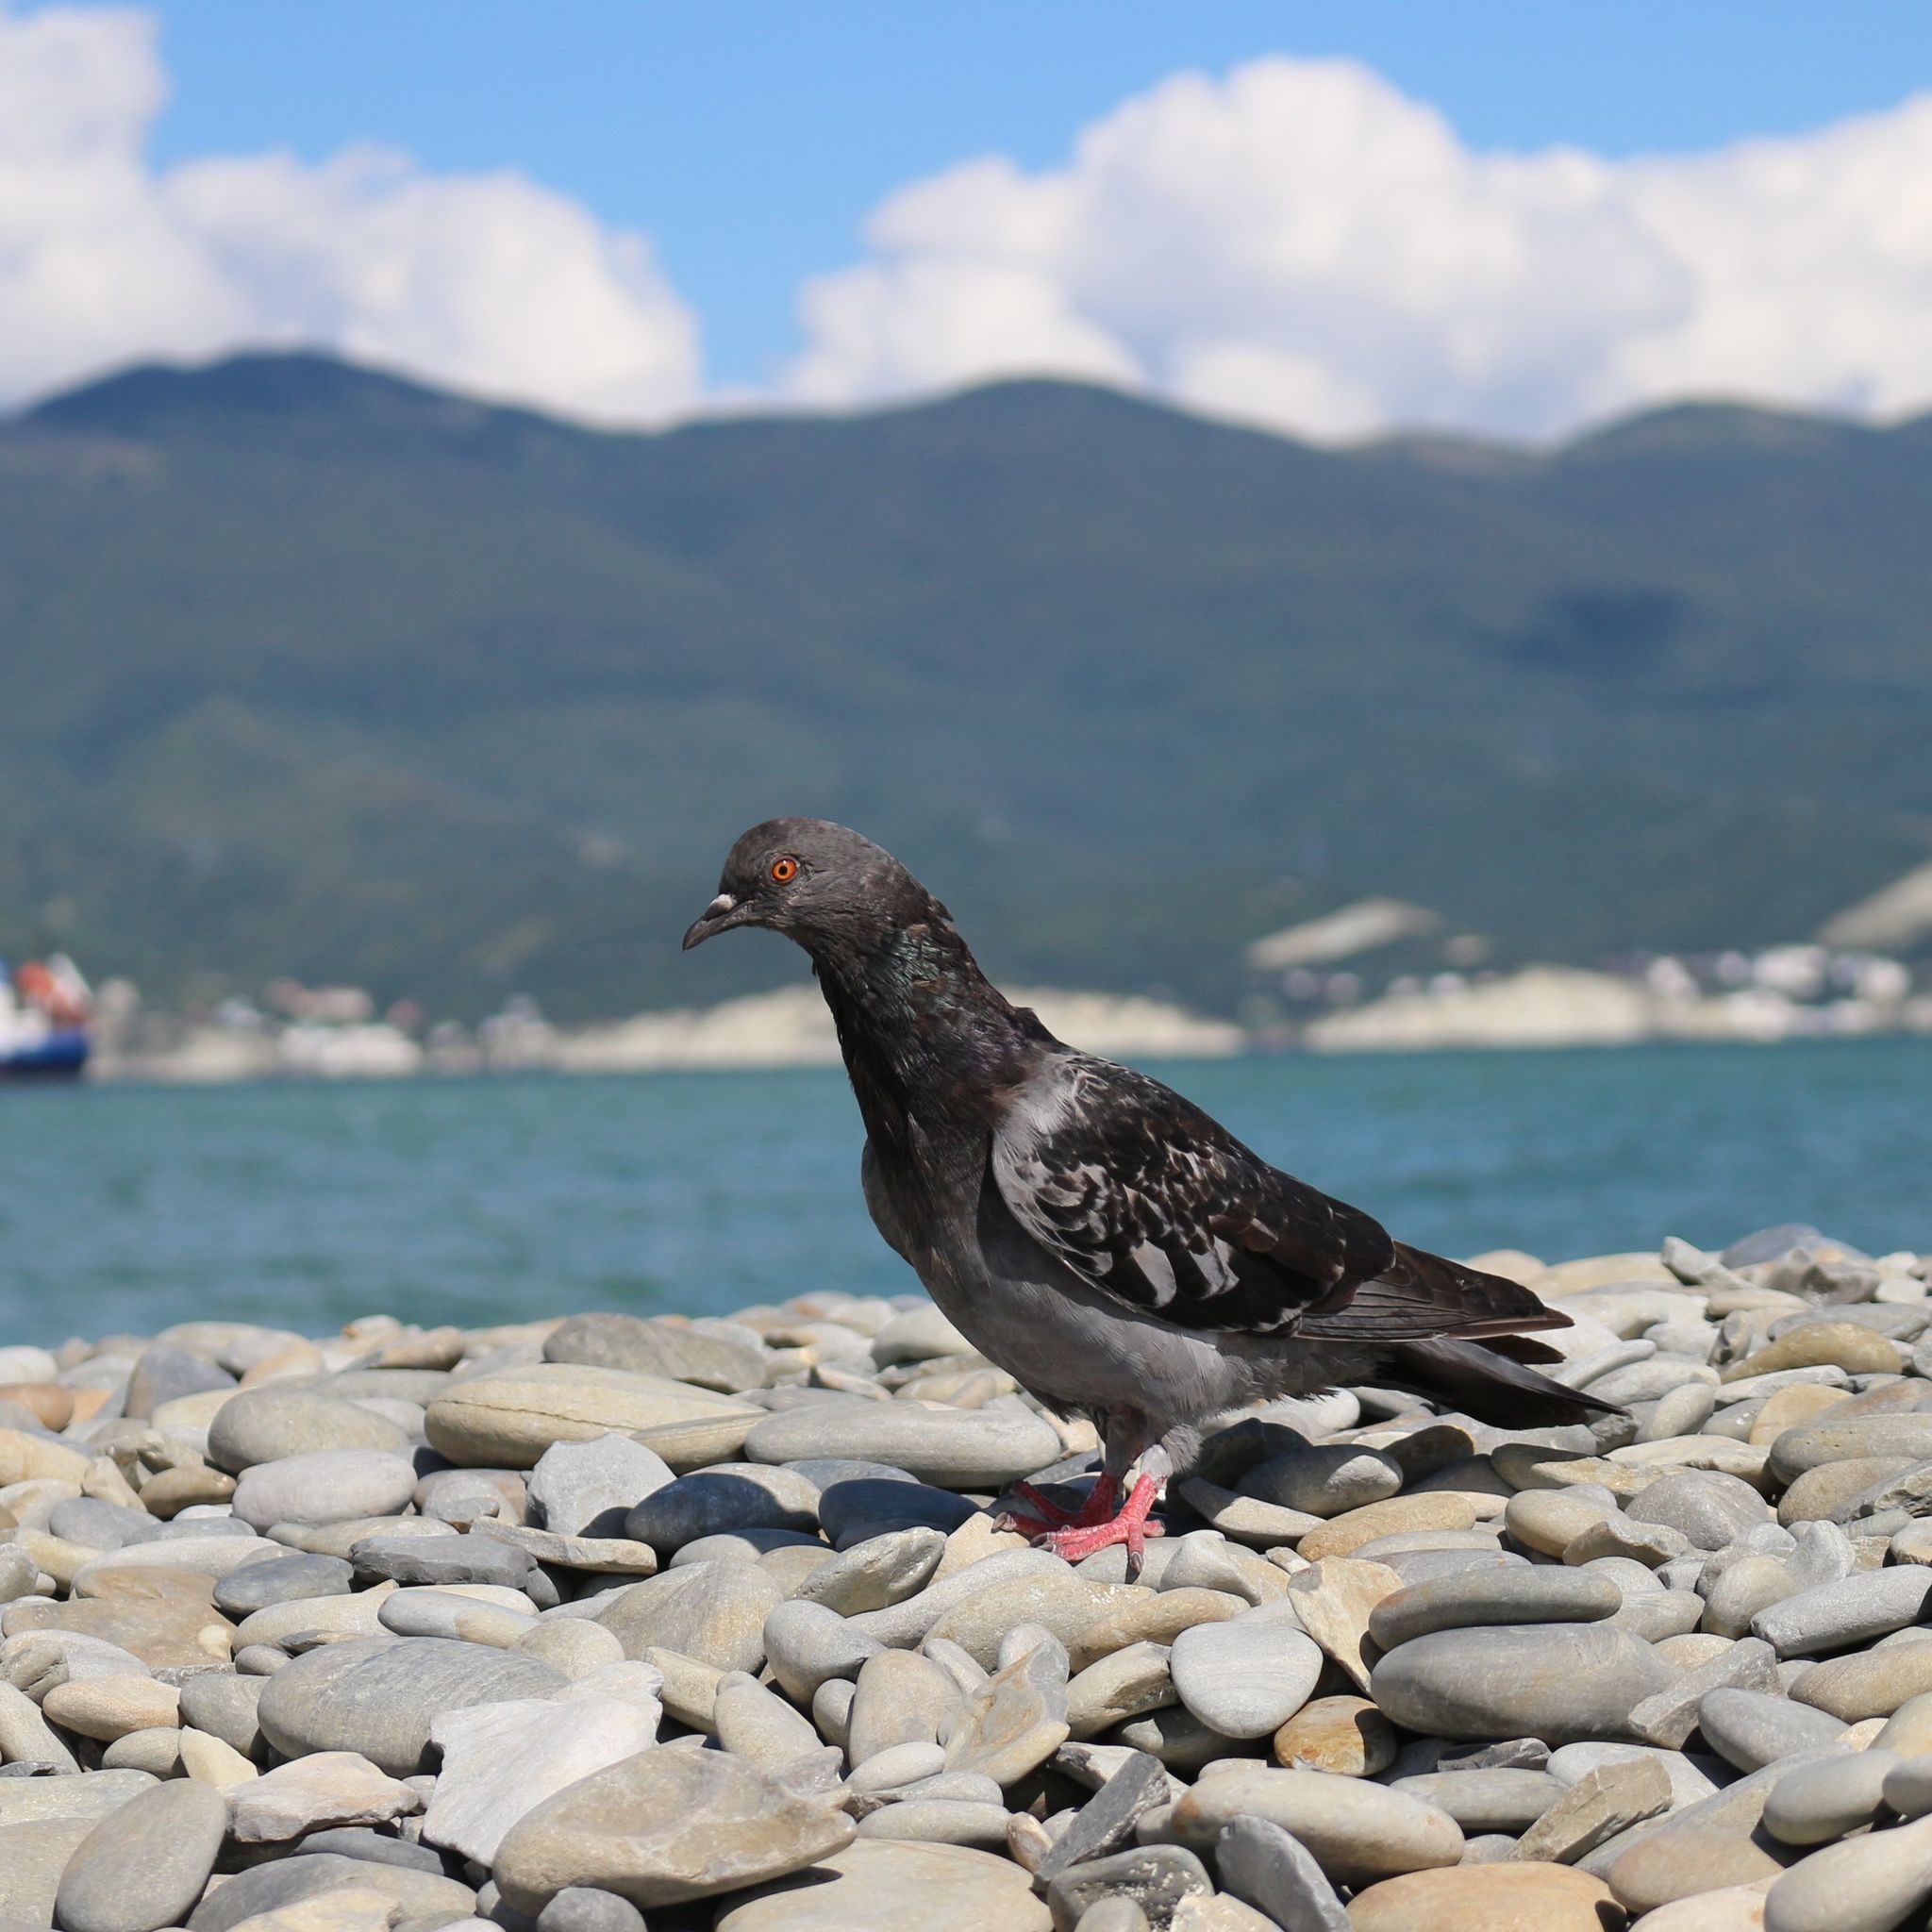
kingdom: Animalia
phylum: Chordata
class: Aves
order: Columbiformes
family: Columbidae
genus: Columba
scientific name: Columba livia
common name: Rock pigeon
